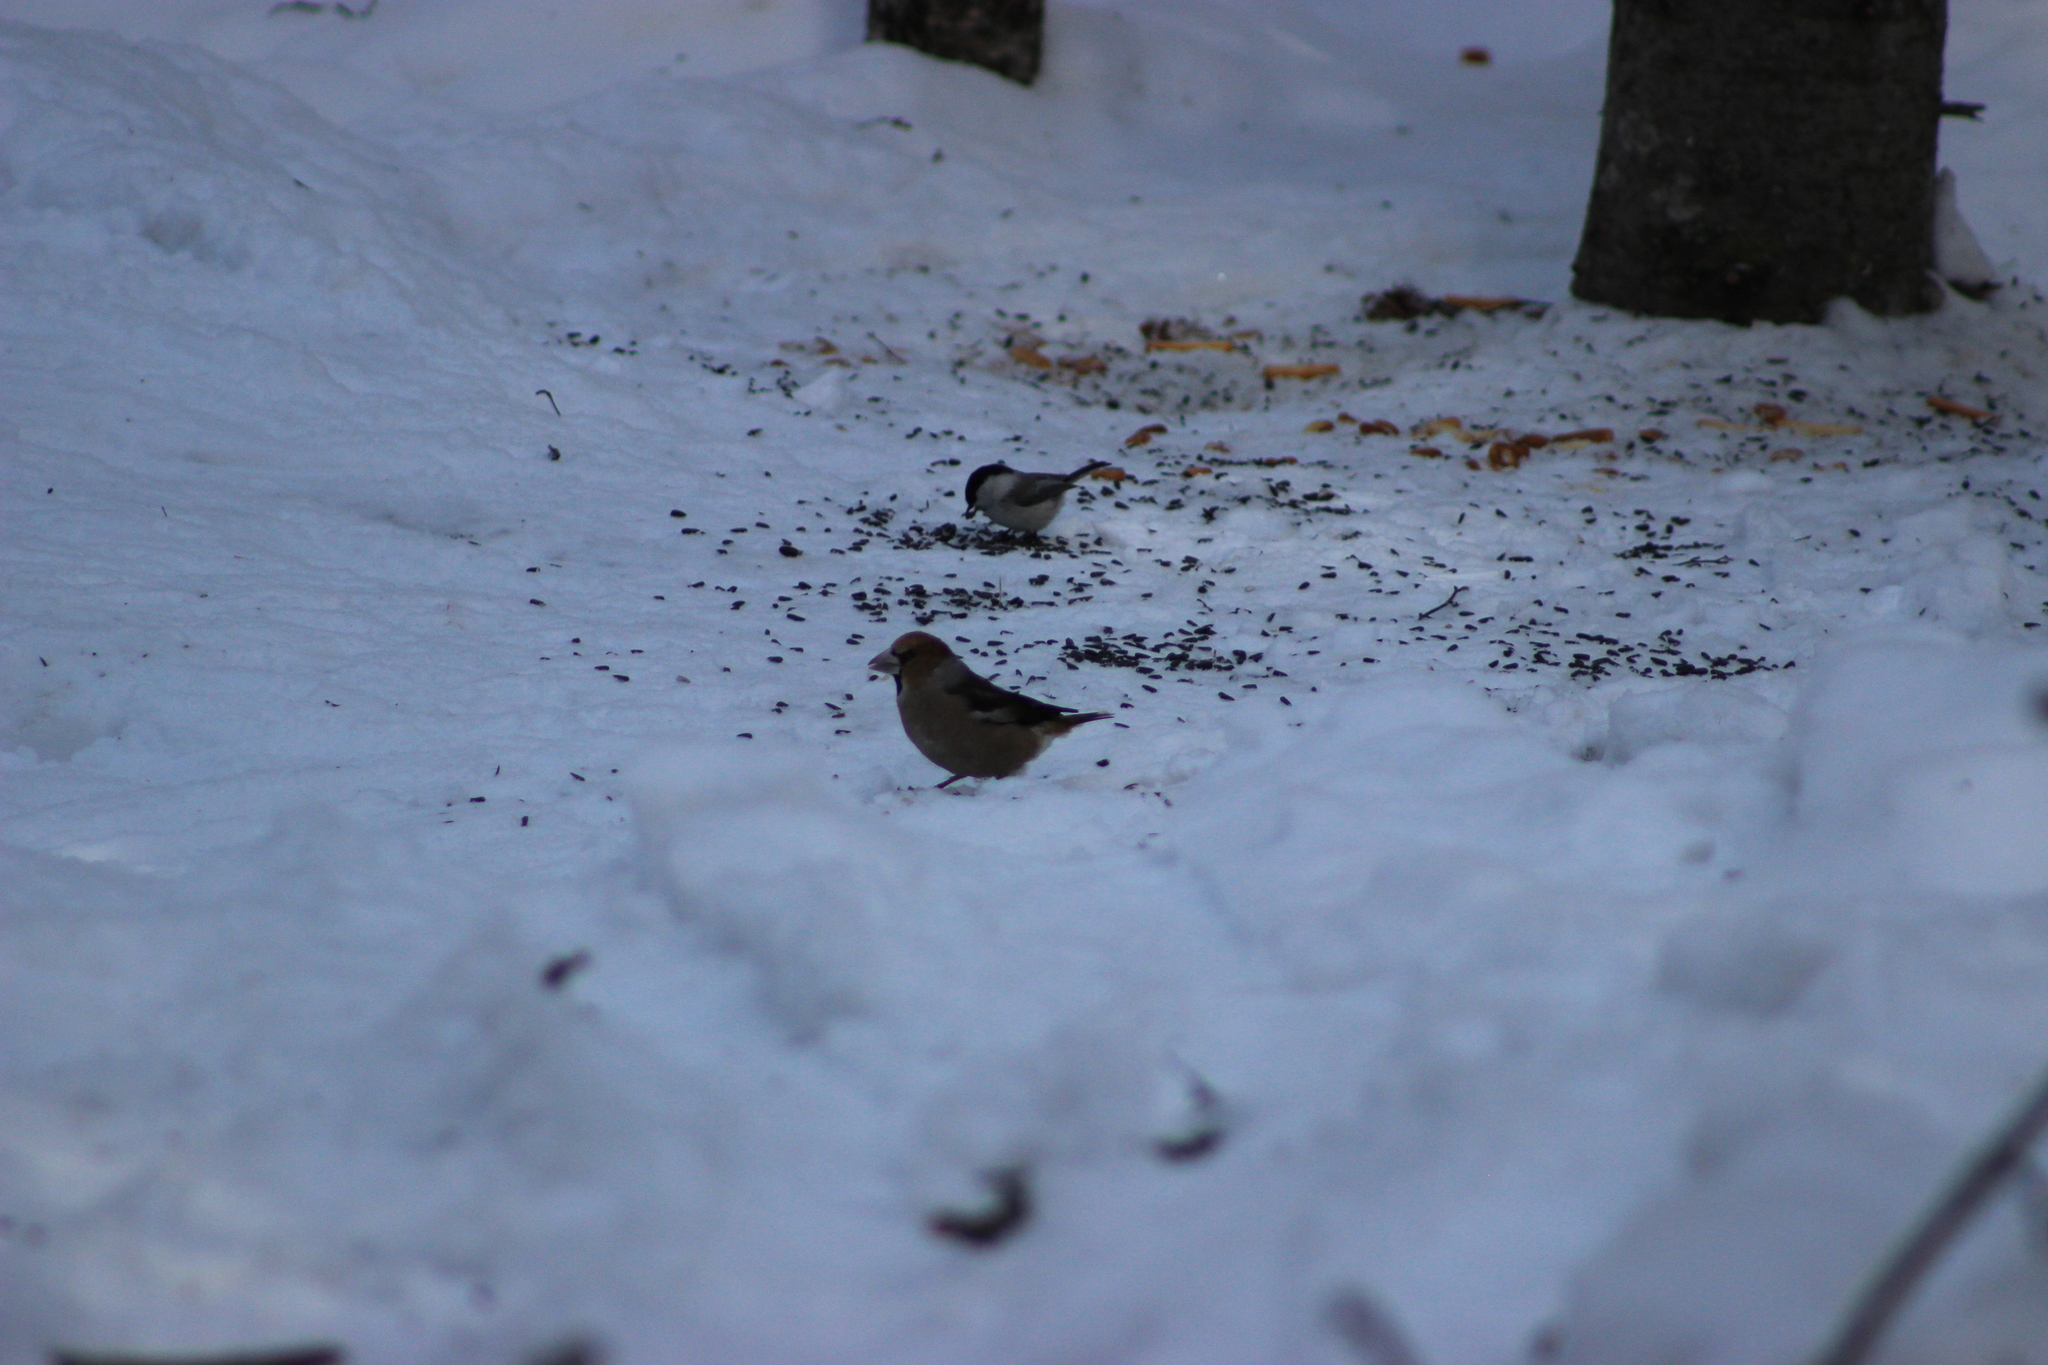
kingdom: Animalia
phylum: Chordata
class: Aves
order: Passeriformes
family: Fringillidae
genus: Coccothraustes
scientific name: Coccothraustes coccothraustes
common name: Hawfinch
